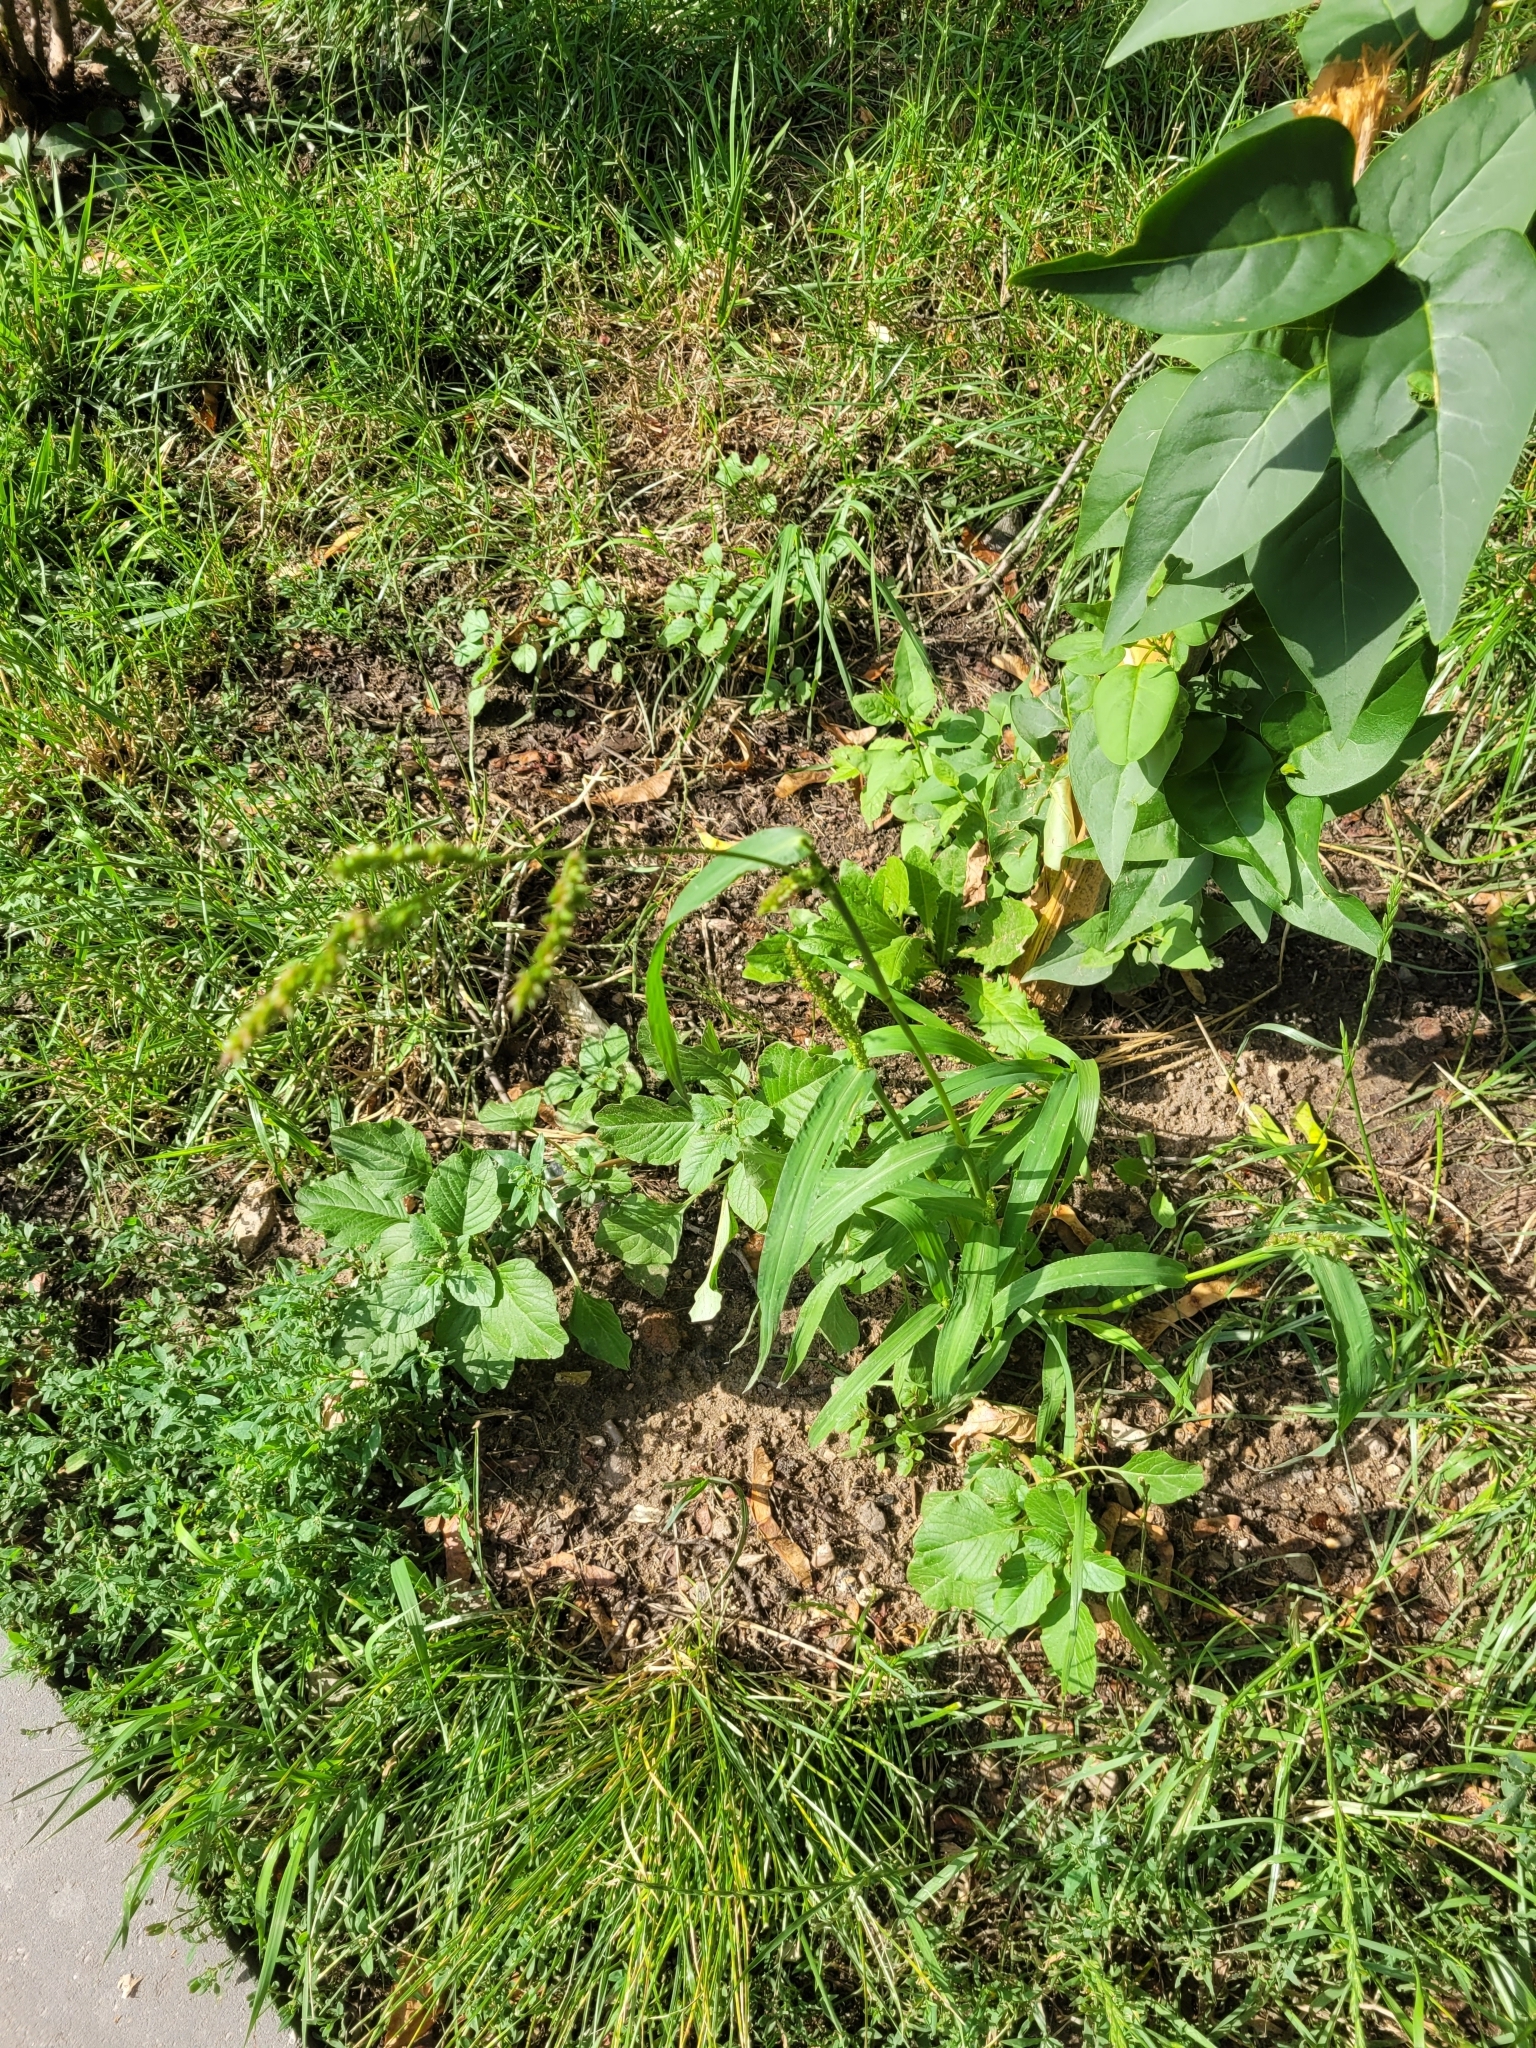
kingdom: Plantae
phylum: Tracheophyta
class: Liliopsida
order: Poales
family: Poaceae
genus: Echinochloa
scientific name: Echinochloa crus-galli
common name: Cockspur
